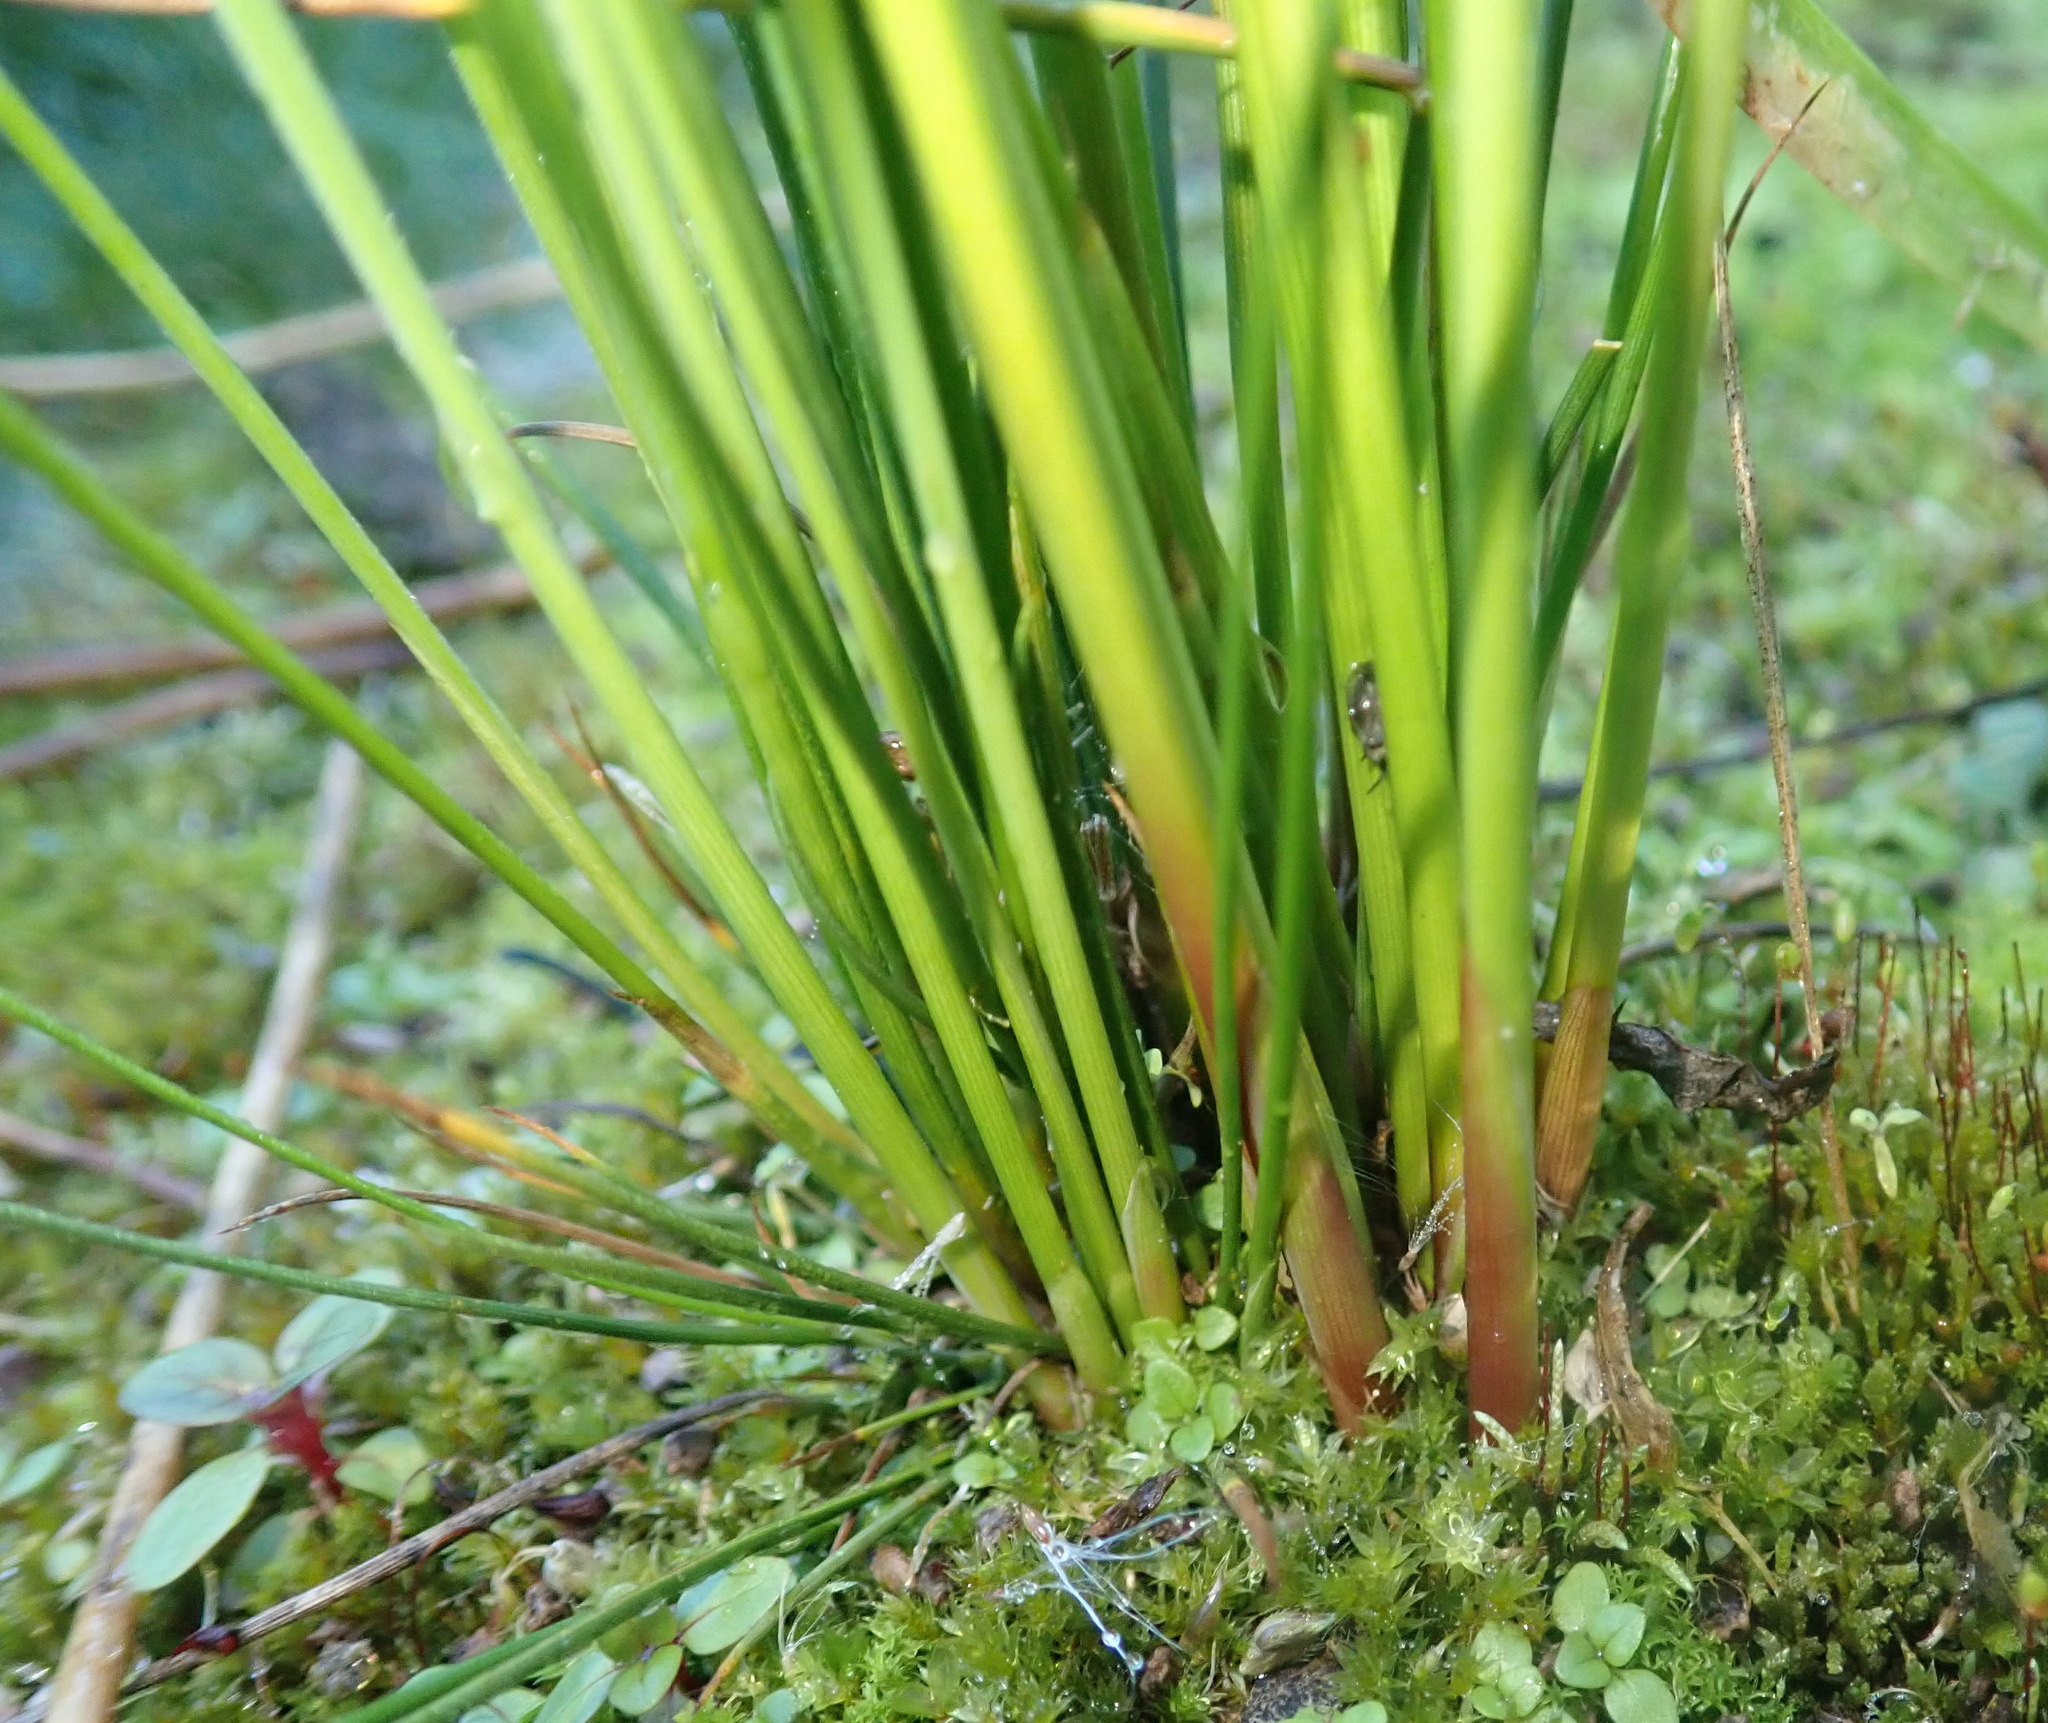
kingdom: Plantae
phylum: Tracheophyta
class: Liliopsida
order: Poales
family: Juncaceae
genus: Juncus
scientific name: Juncus usitatus
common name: Rush
